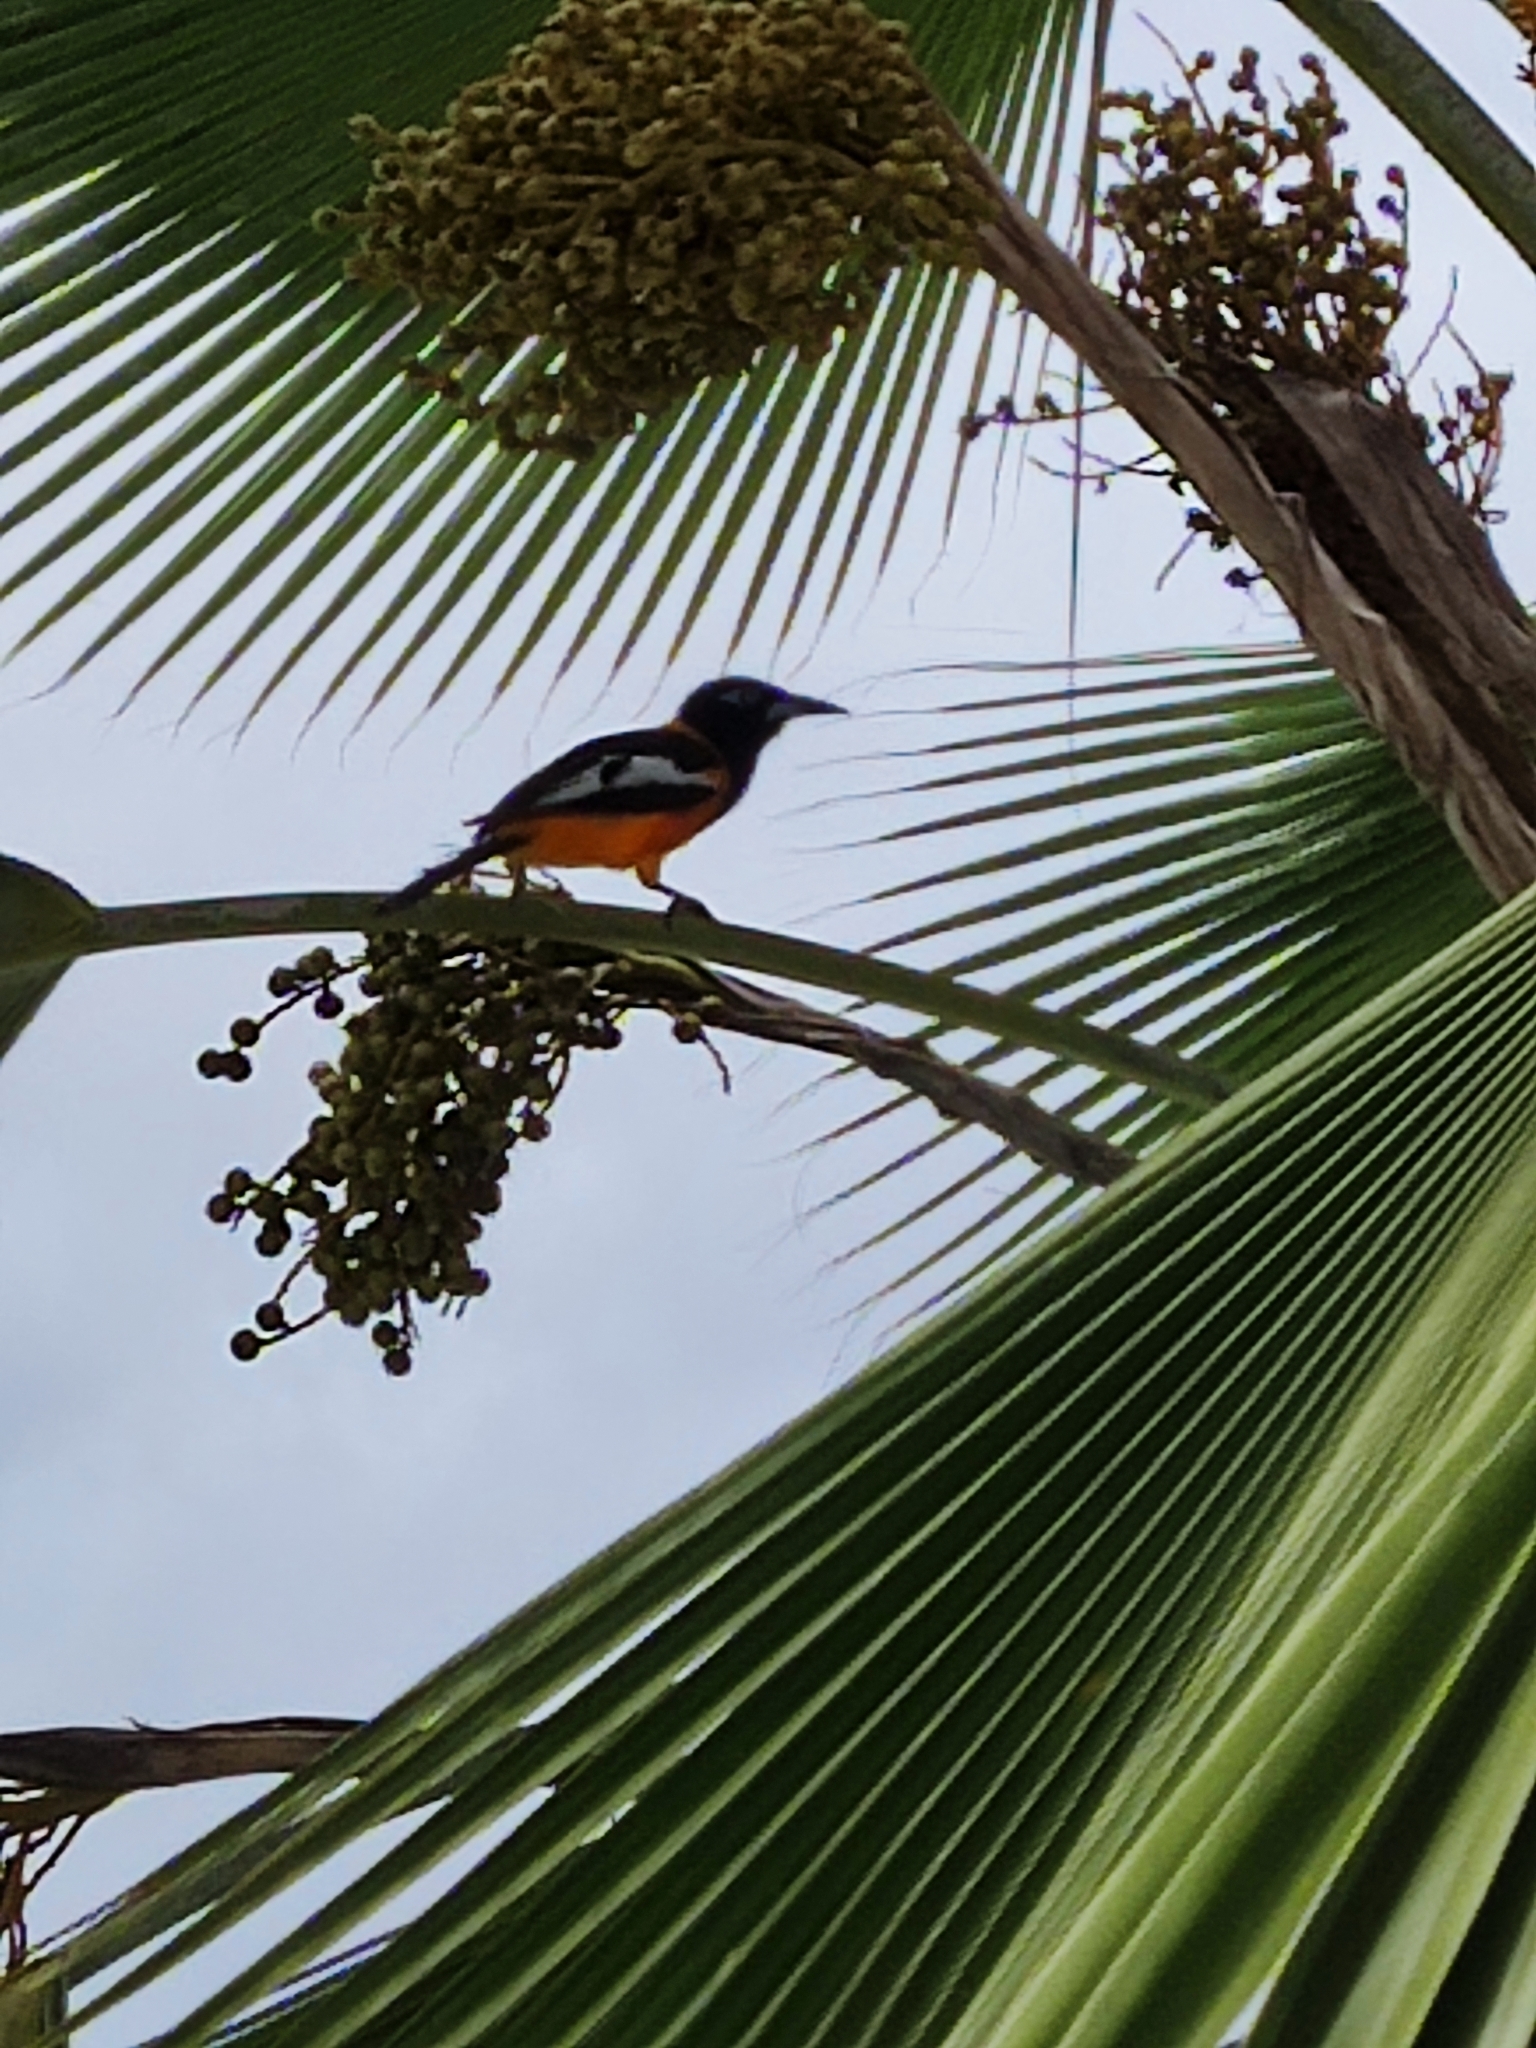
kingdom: Animalia
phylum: Chordata
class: Aves
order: Passeriformes
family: Icteridae
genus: Icterus
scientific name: Icterus icterus
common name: Venezuelan troupial
